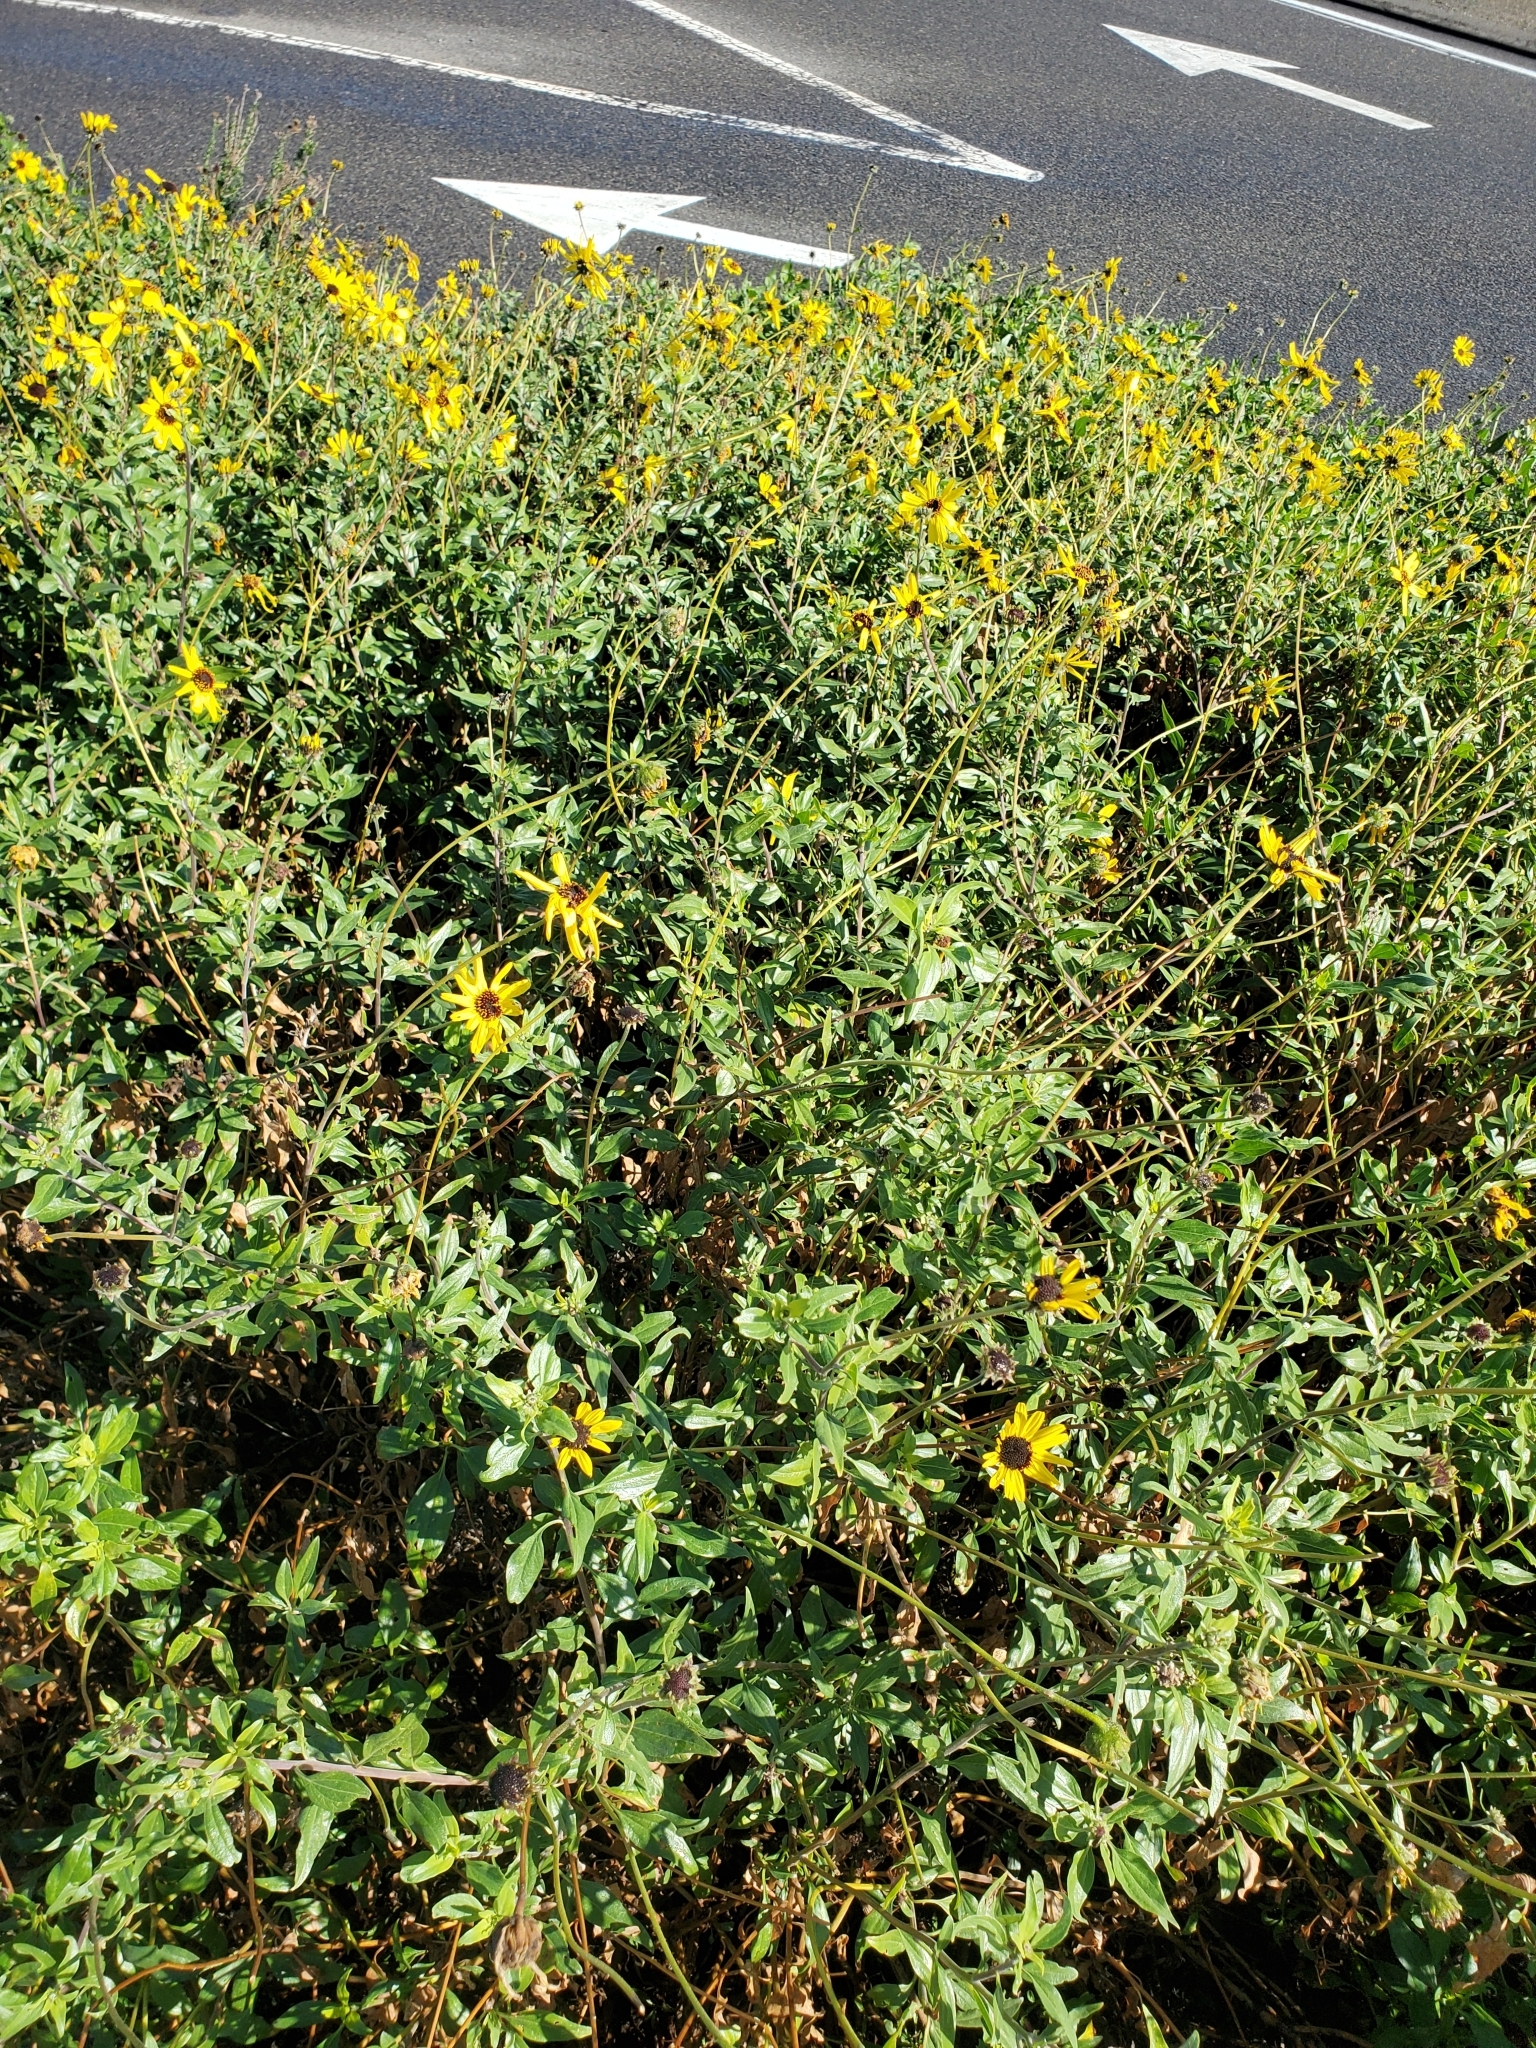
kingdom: Plantae
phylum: Tracheophyta
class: Magnoliopsida
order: Asterales
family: Asteraceae
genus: Encelia
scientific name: Encelia californica
